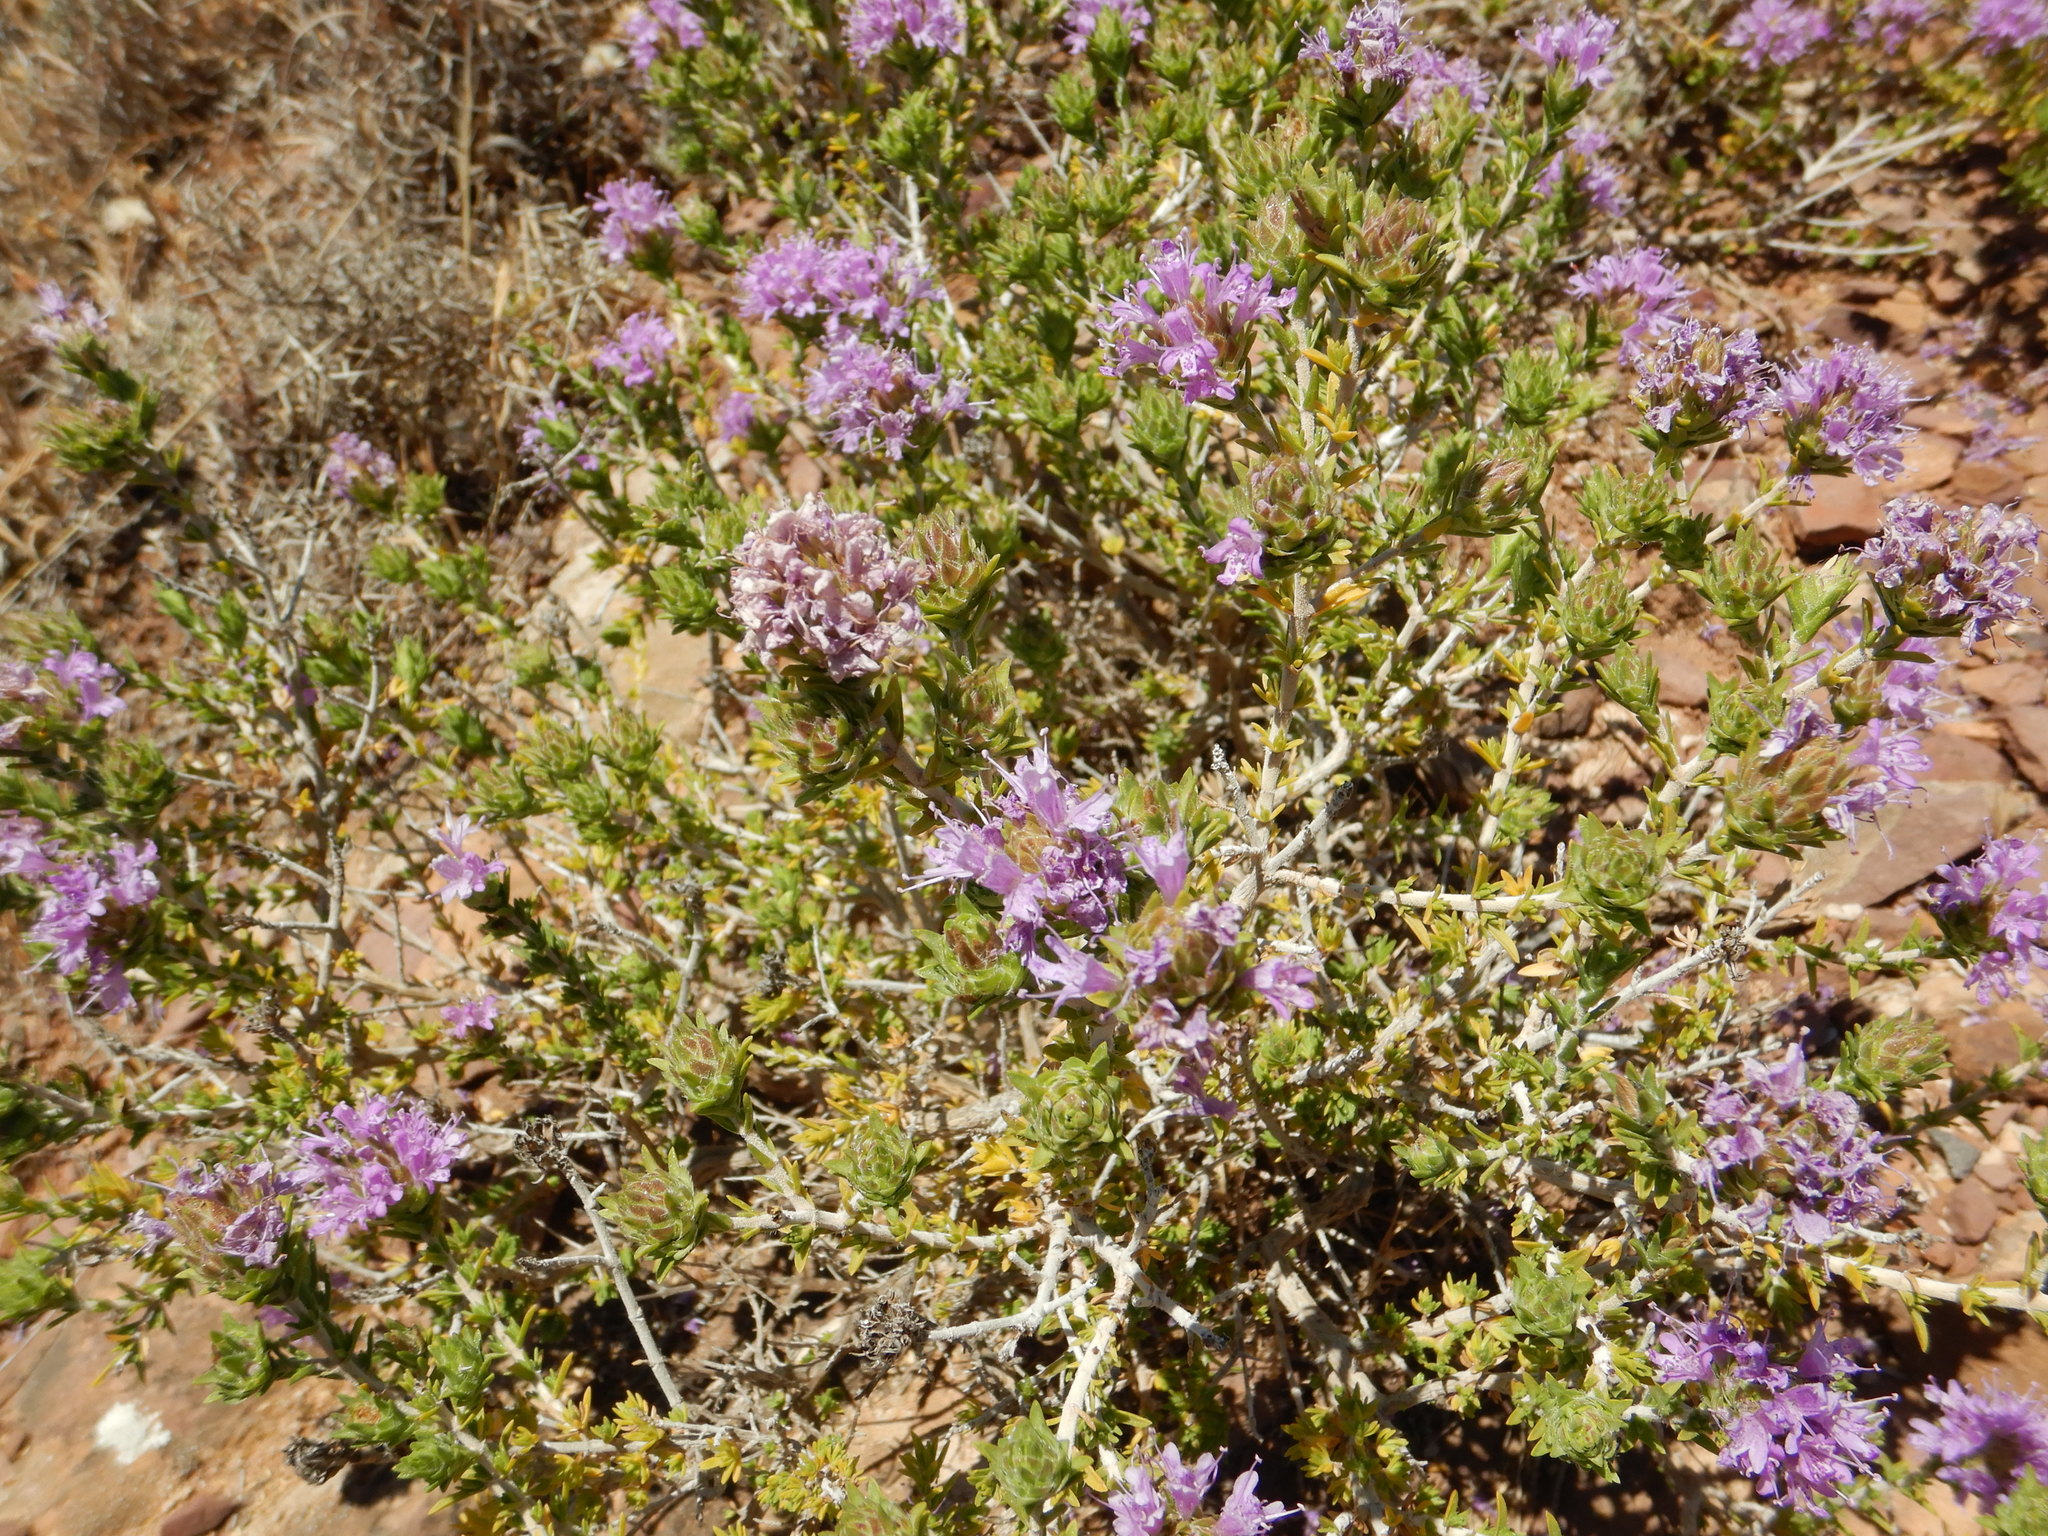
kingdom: Plantae
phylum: Tracheophyta
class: Magnoliopsida
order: Lamiales
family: Lamiaceae
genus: Thymbra
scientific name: Thymbra capitata
